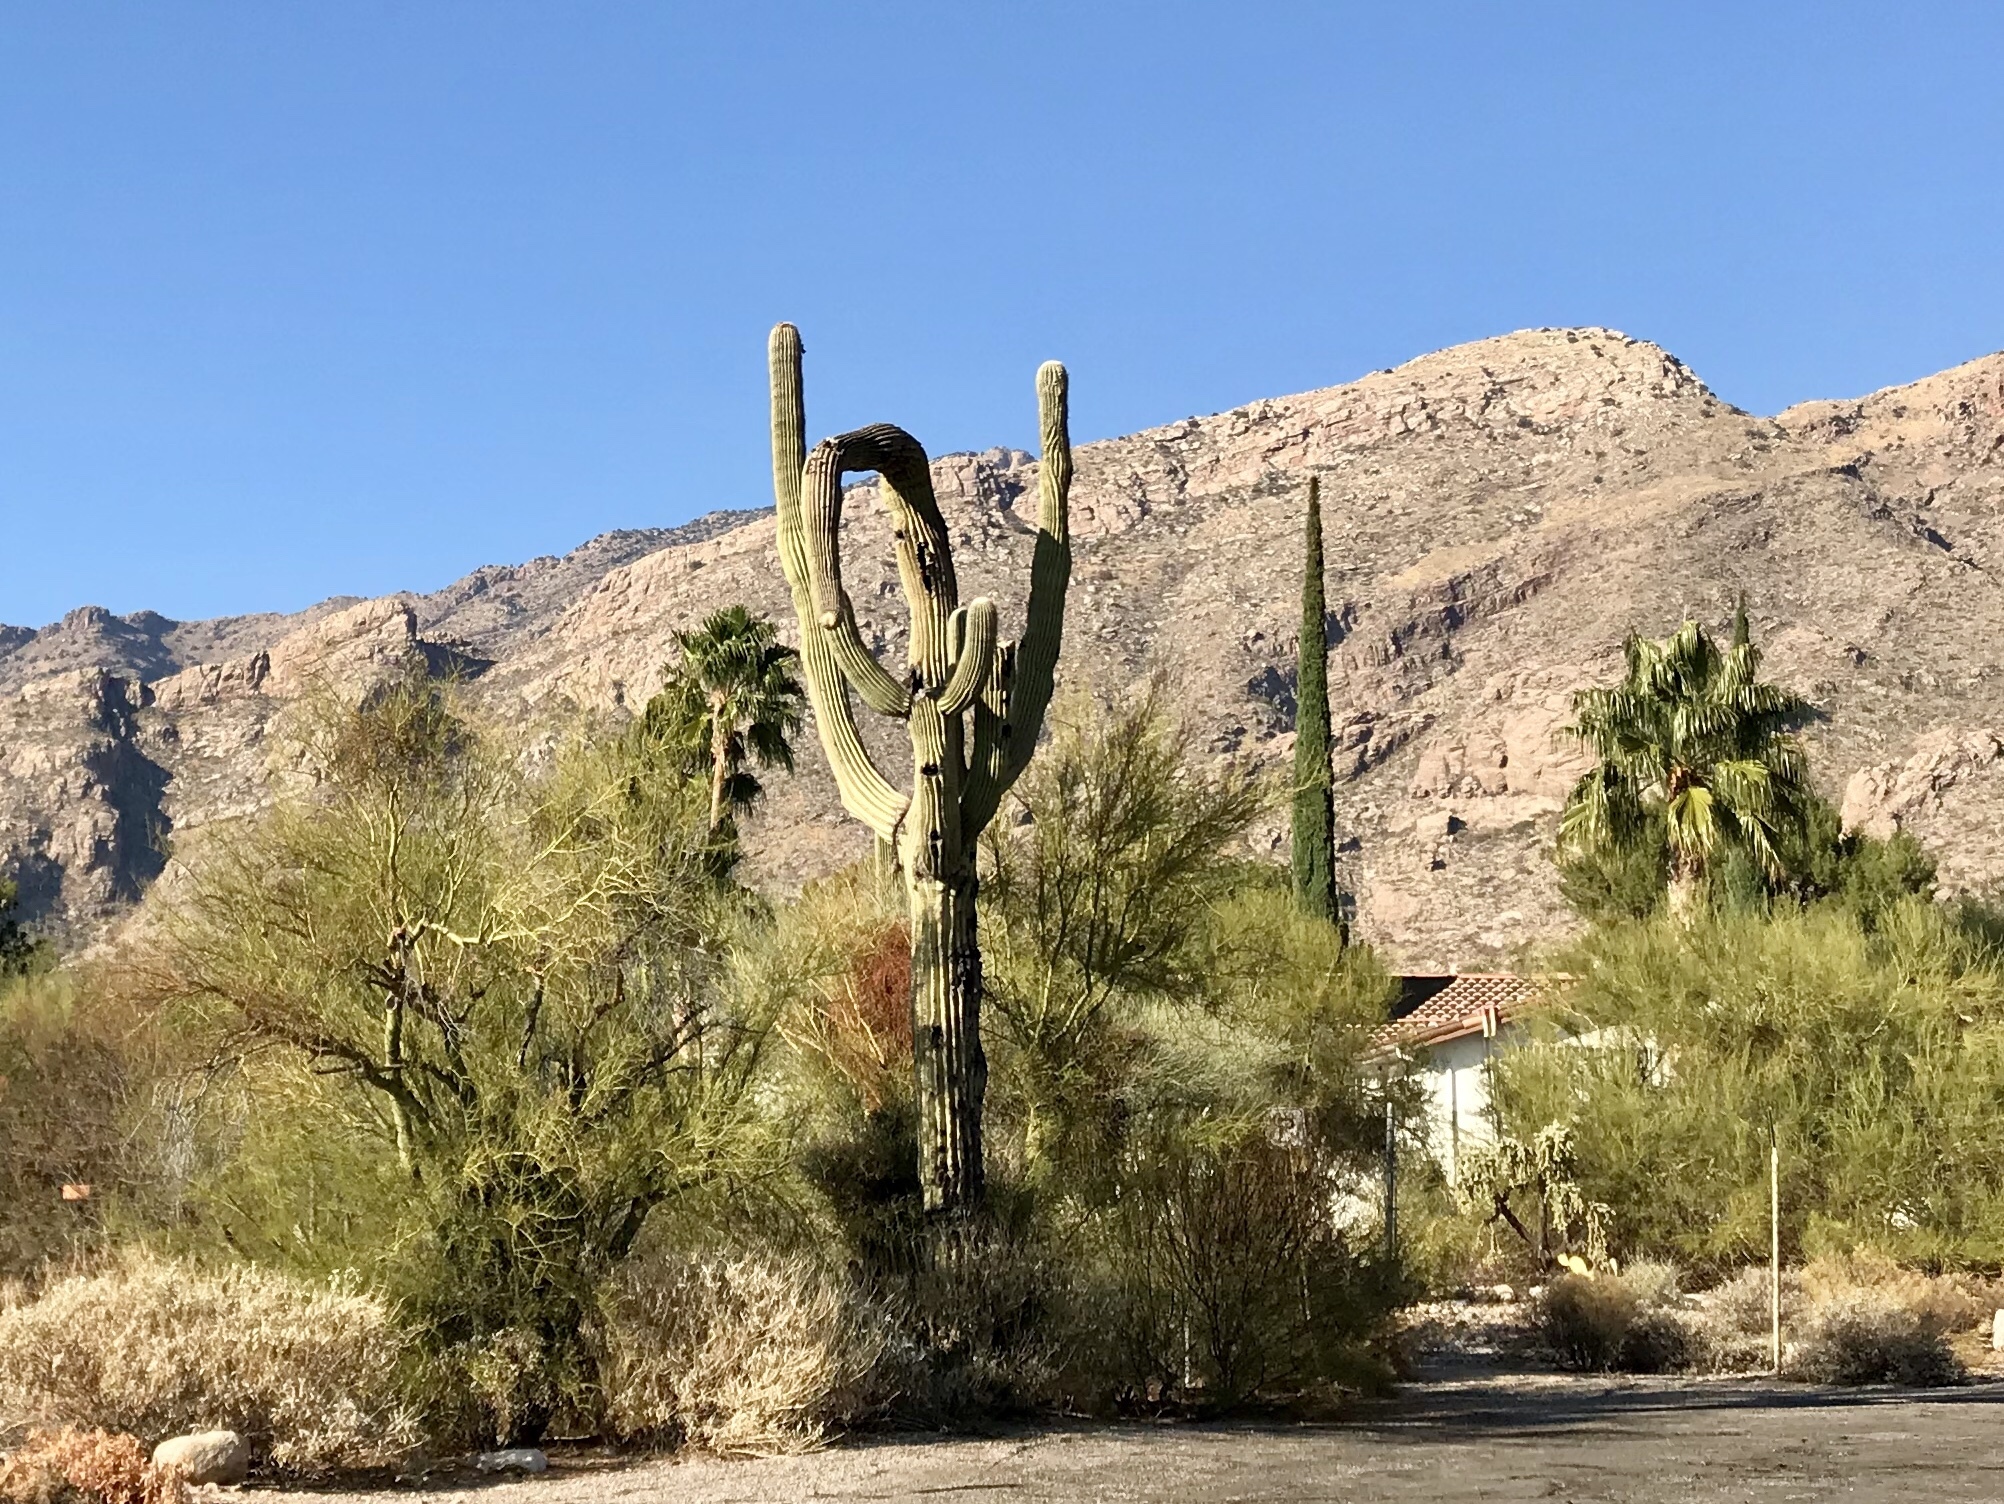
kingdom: Plantae
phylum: Tracheophyta
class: Magnoliopsida
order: Caryophyllales
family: Cactaceae
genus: Carnegiea
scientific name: Carnegiea gigantea
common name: Saguaro
